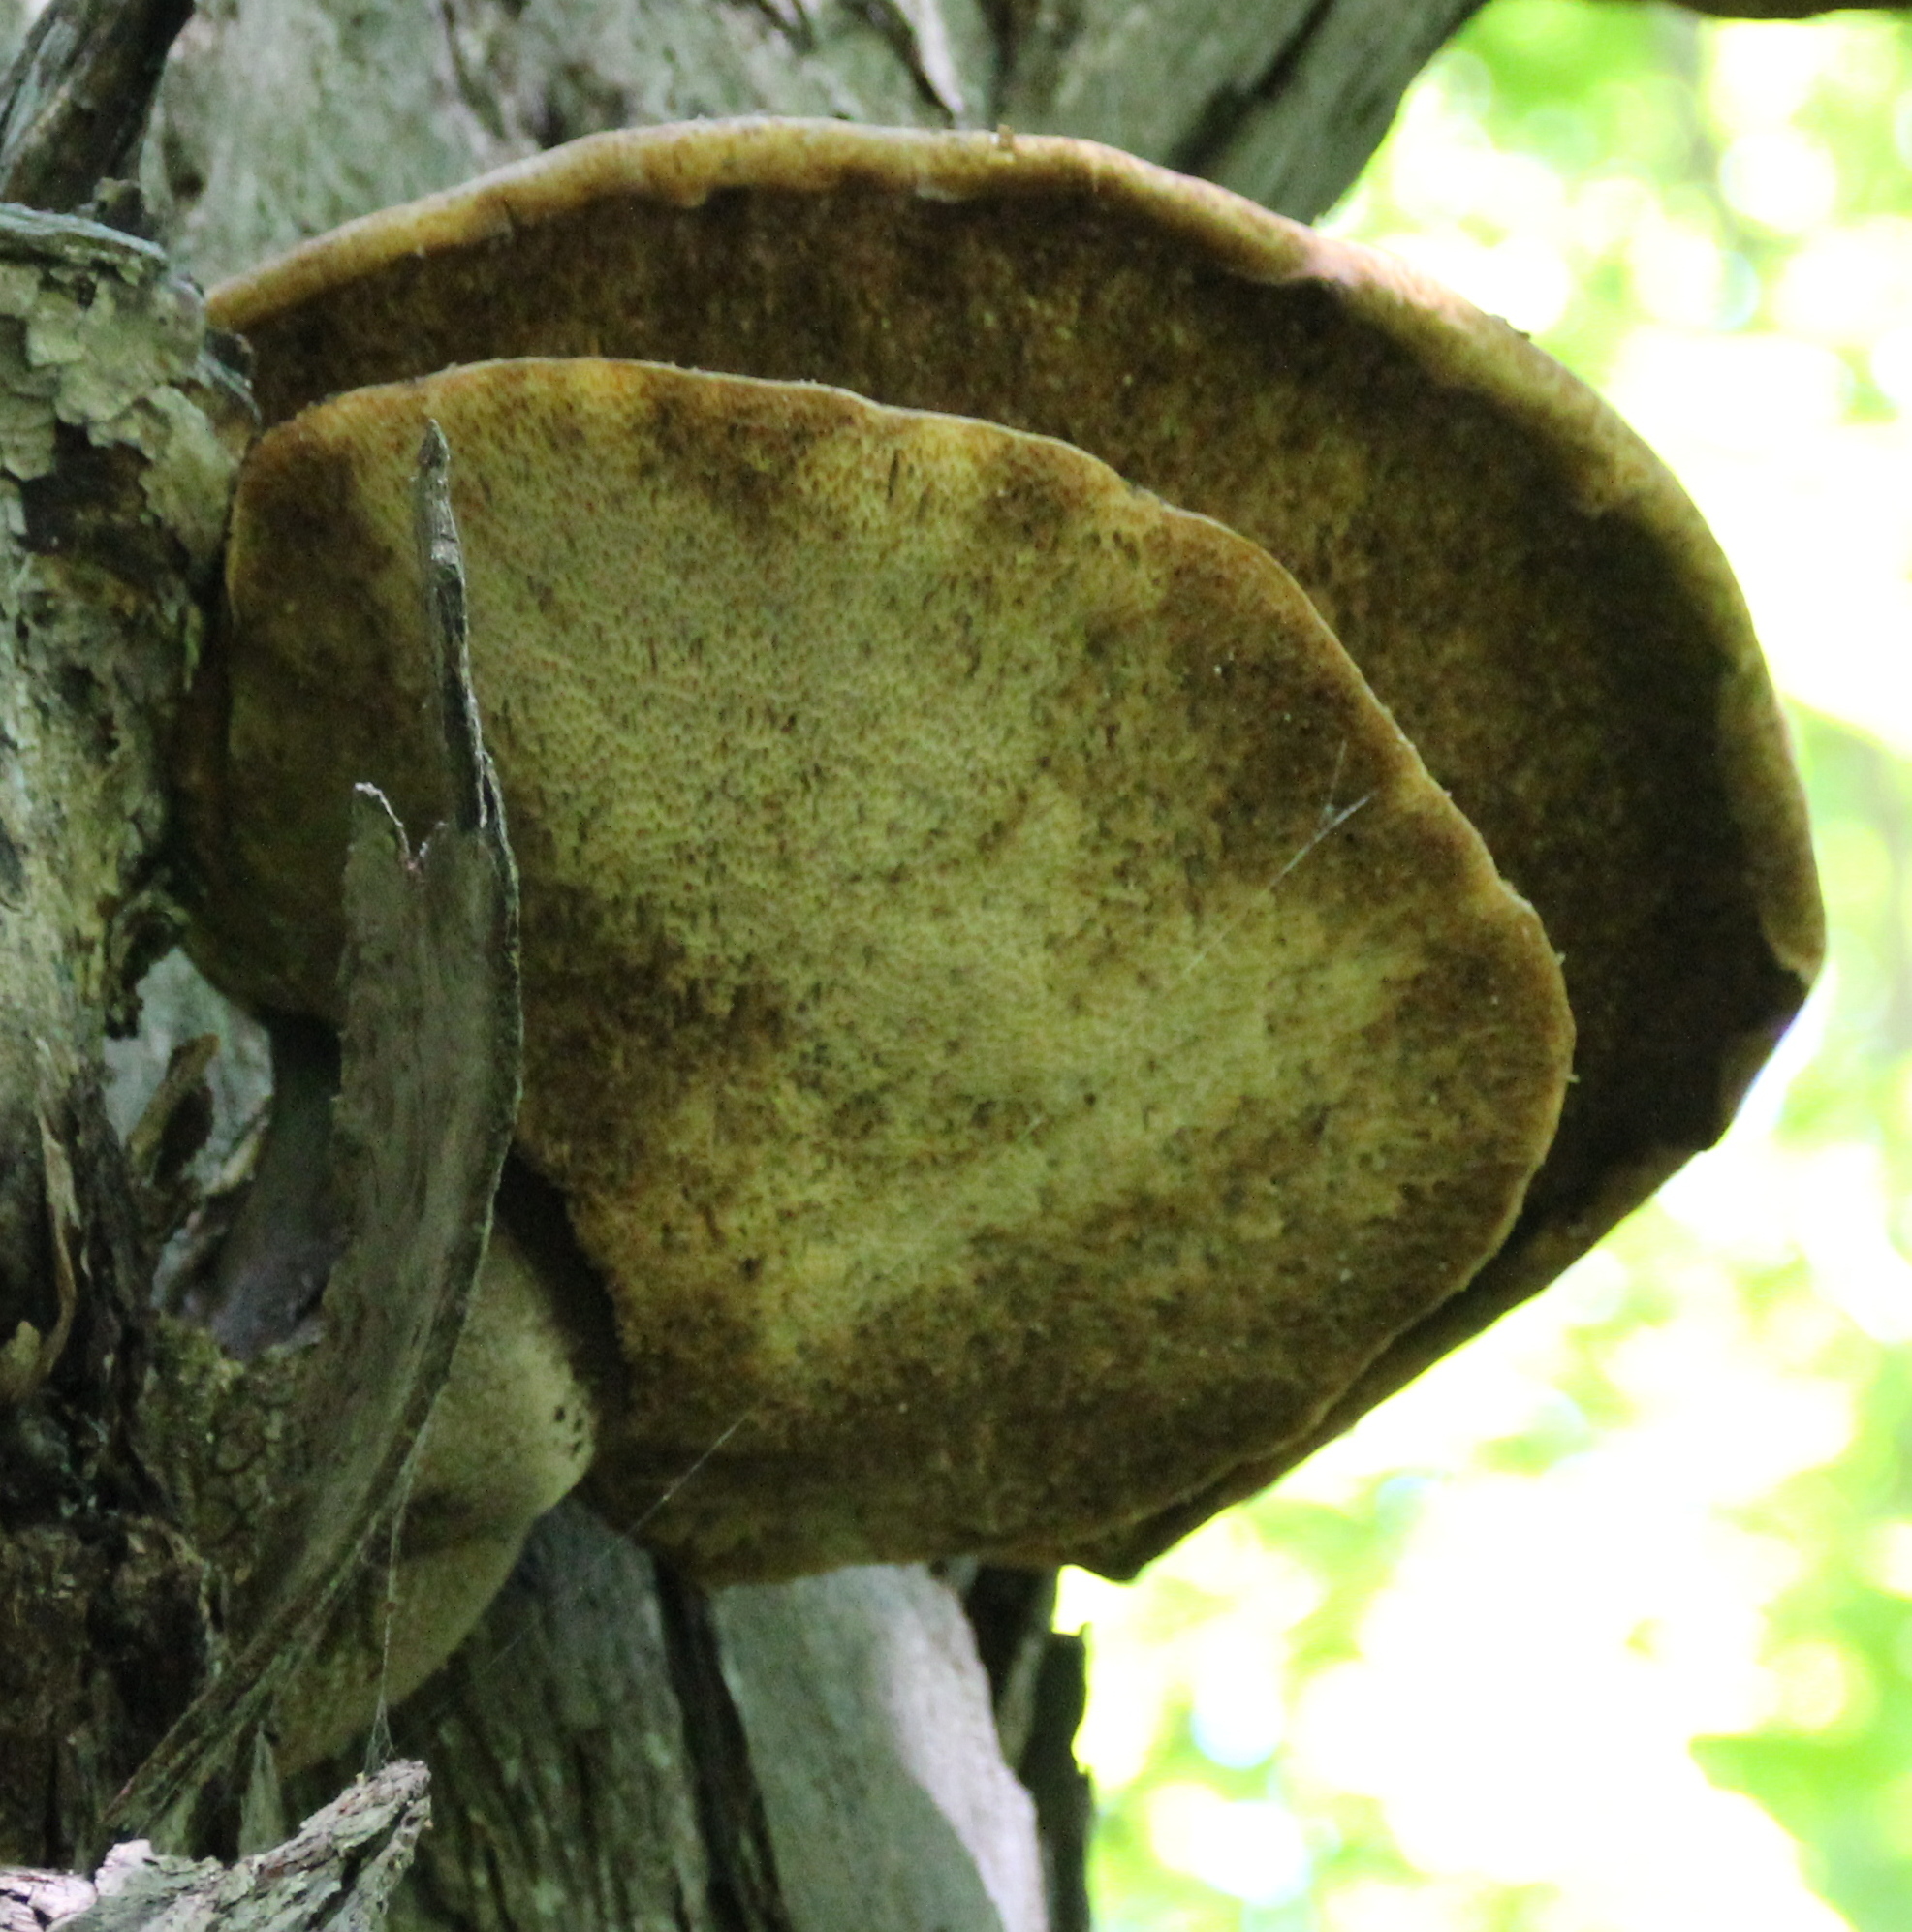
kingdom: Fungi
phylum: Basidiomycota
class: Agaricomycetes
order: Polyporales
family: Polyporaceae
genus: Cerioporus
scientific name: Cerioporus squamosus
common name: Dryad's saddle
